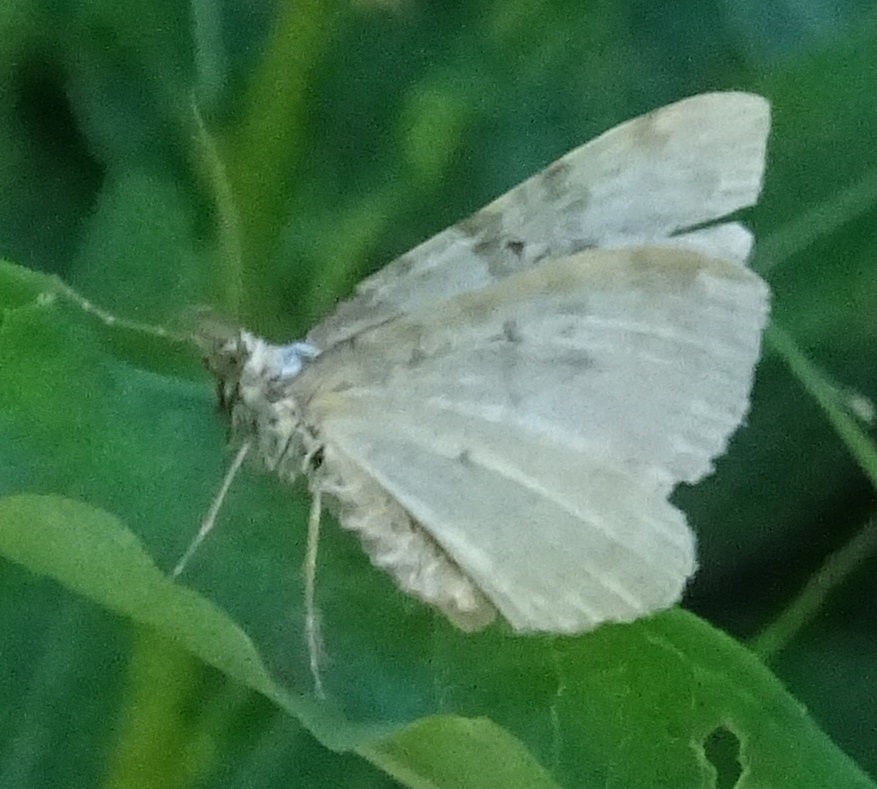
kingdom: Animalia
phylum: Arthropoda
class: Insecta
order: Lepidoptera
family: Geometridae
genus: Xanthorhoe
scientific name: Xanthorhoe montanata
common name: Silver-ground carpet
